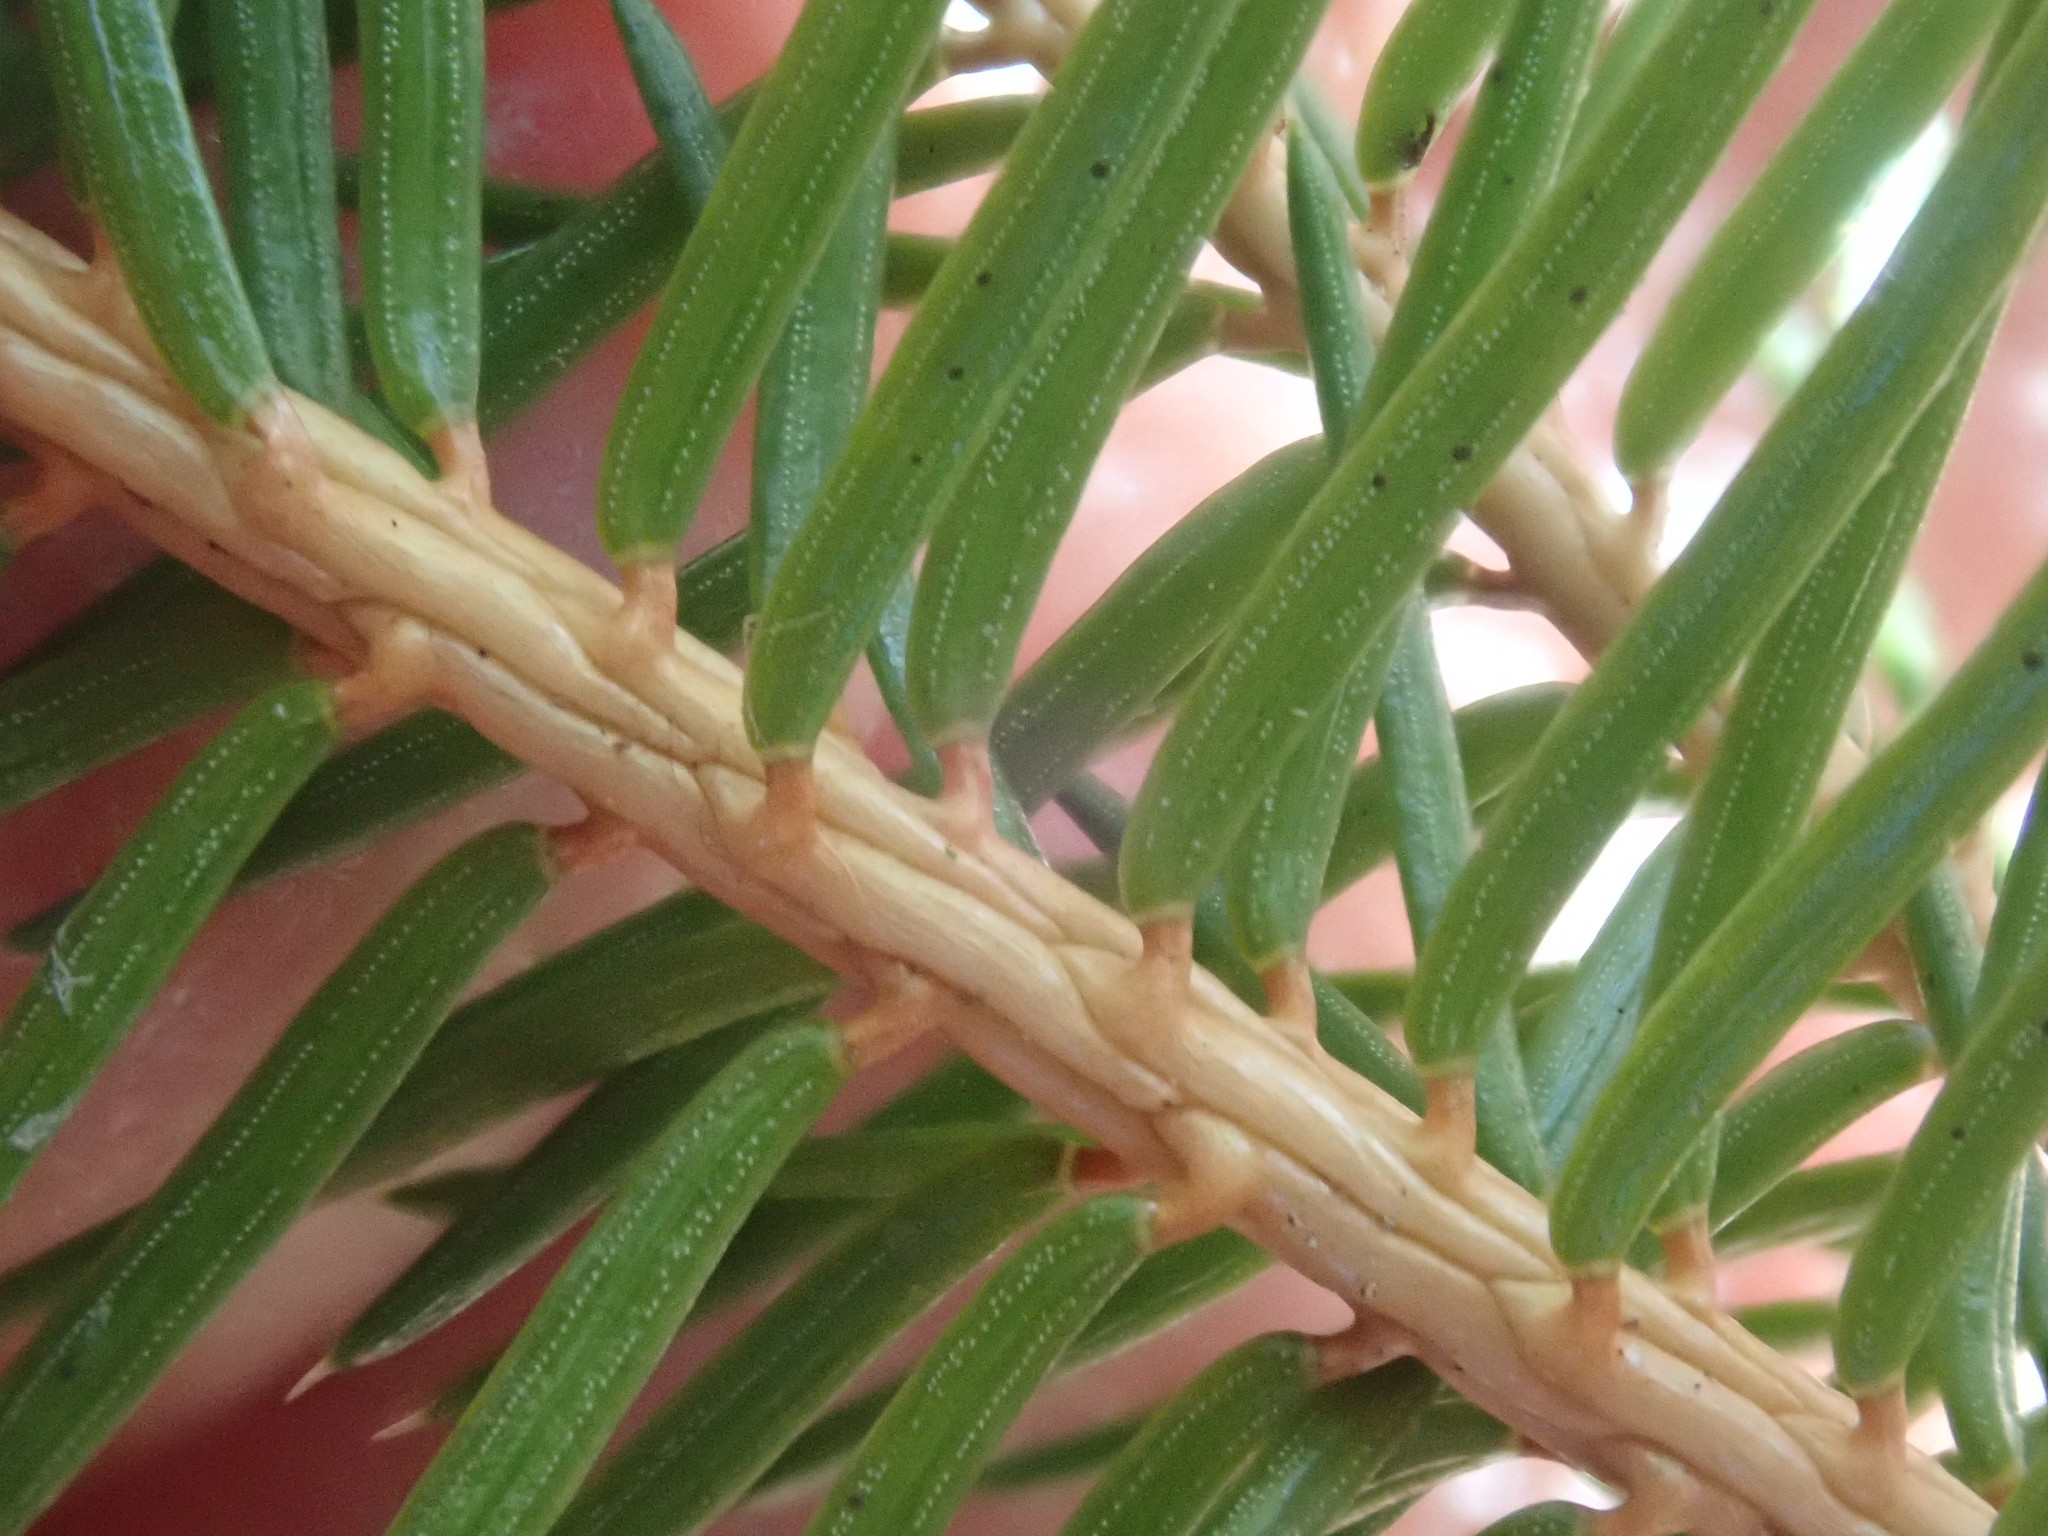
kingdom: Plantae
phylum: Tracheophyta
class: Pinopsida
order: Pinales
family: Pinaceae
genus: Picea
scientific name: Picea abies
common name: Norway spruce
